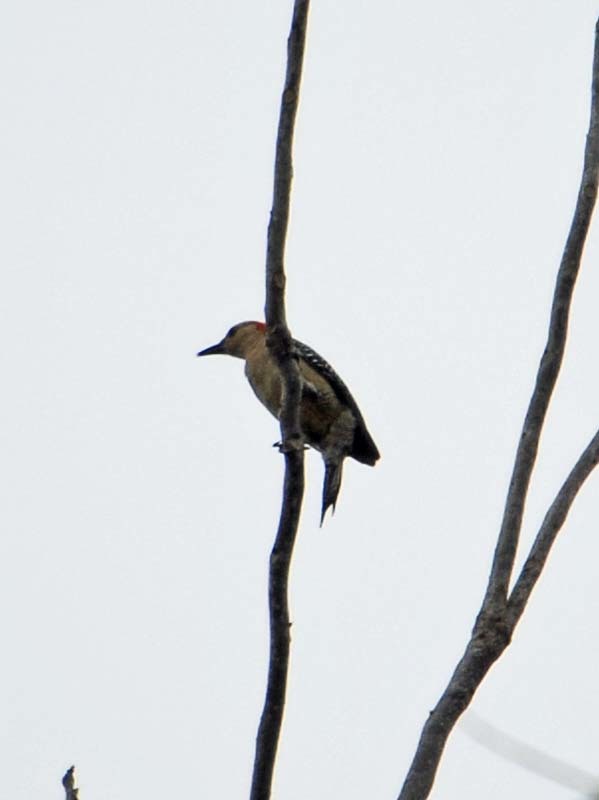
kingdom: Animalia
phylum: Chordata
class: Aves
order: Piciformes
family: Picidae
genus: Melanerpes
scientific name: Melanerpes aurifrons
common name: Golden-fronted woodpecker
